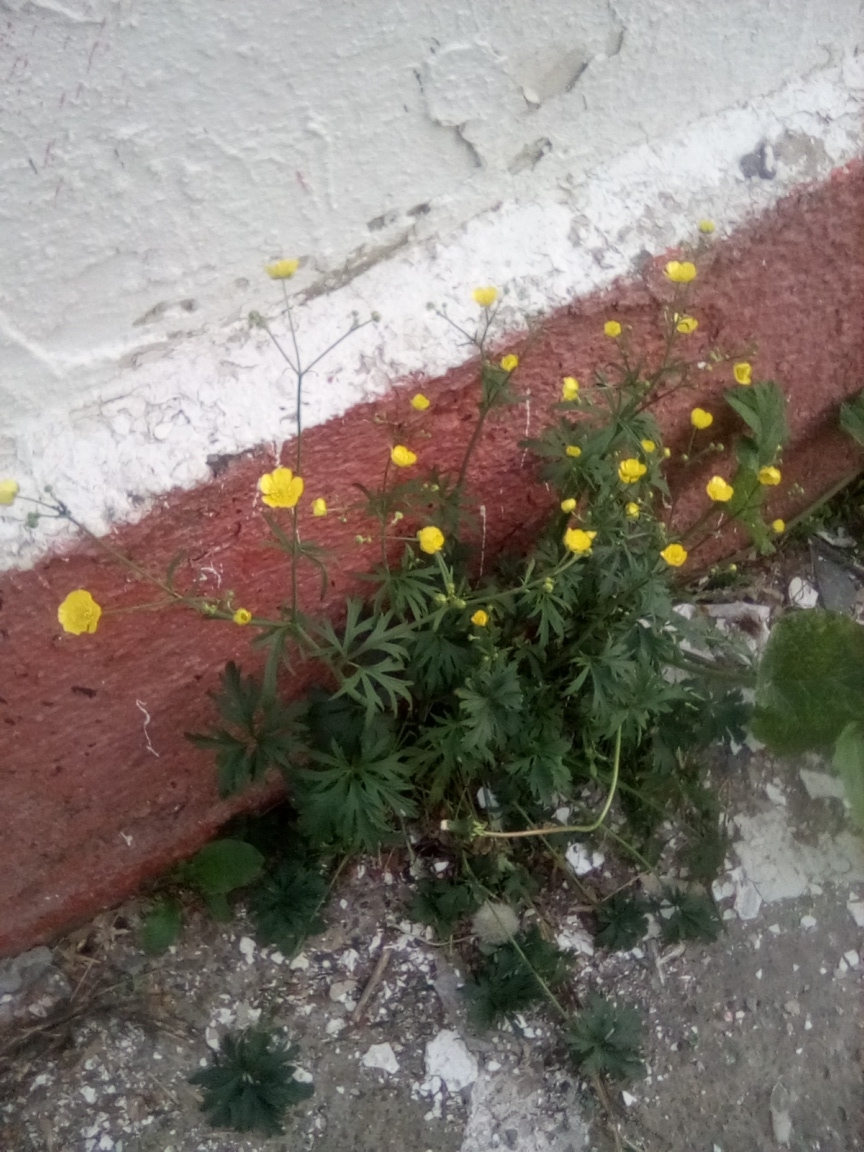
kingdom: Plantae
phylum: Tracheophyta
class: Magnoliopsida
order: Ranunculales
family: Ranunculaceae
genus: Ranunculus
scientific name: Ranunculus acris
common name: Meadow buttercup
